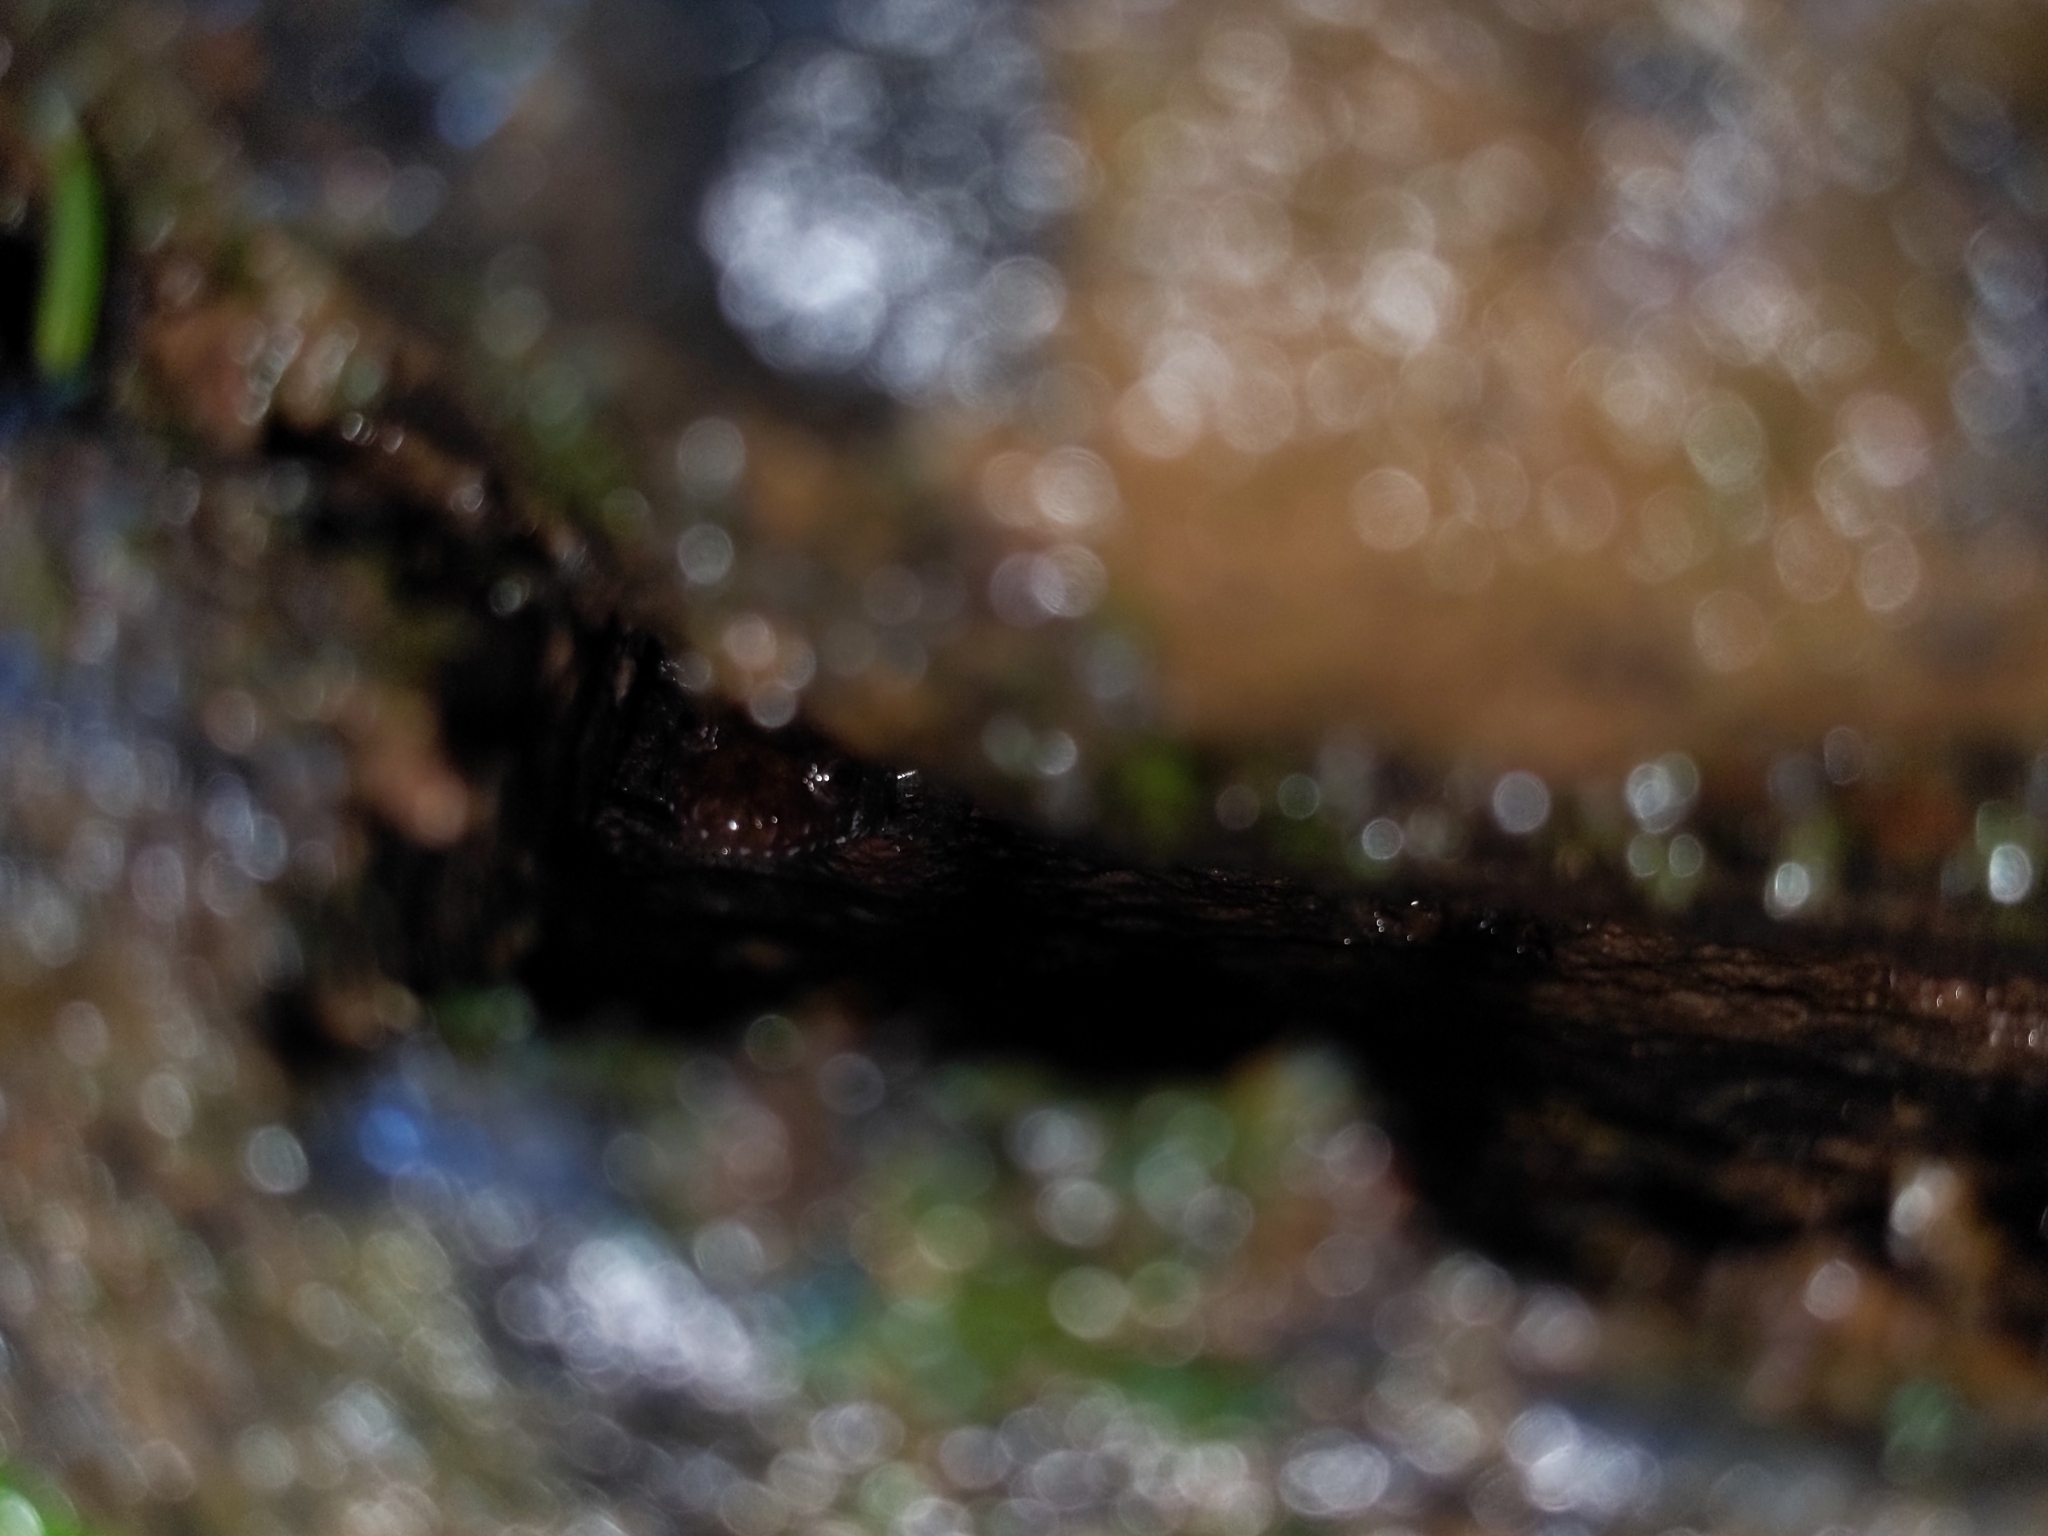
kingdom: Animalia
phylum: Chordata
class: Amphibia
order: Caudata
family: Plethodontidae
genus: Desmognathus
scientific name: Desmognathus monticola
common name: Seal salamander
